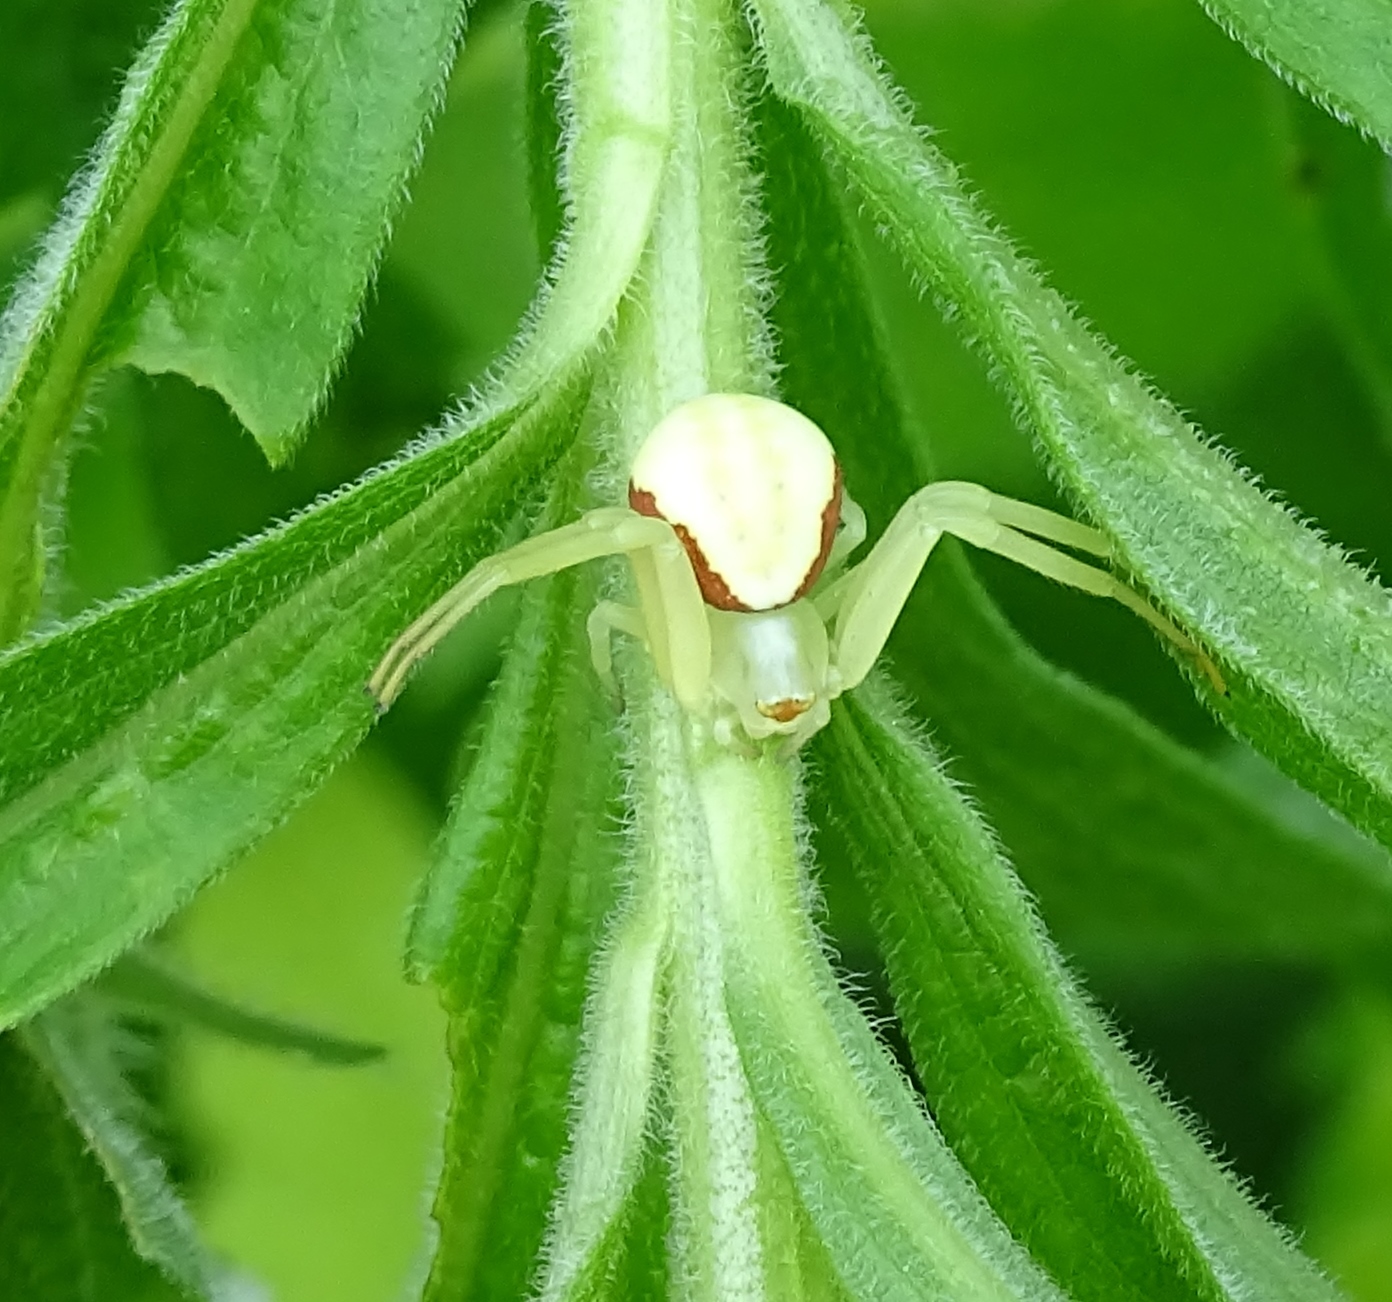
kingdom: Animalia
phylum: Arthropoda
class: Arachnida
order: Araneae
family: Thomisidae
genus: Misumena
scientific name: Misumena vatia
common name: Goldenrod crab spider
